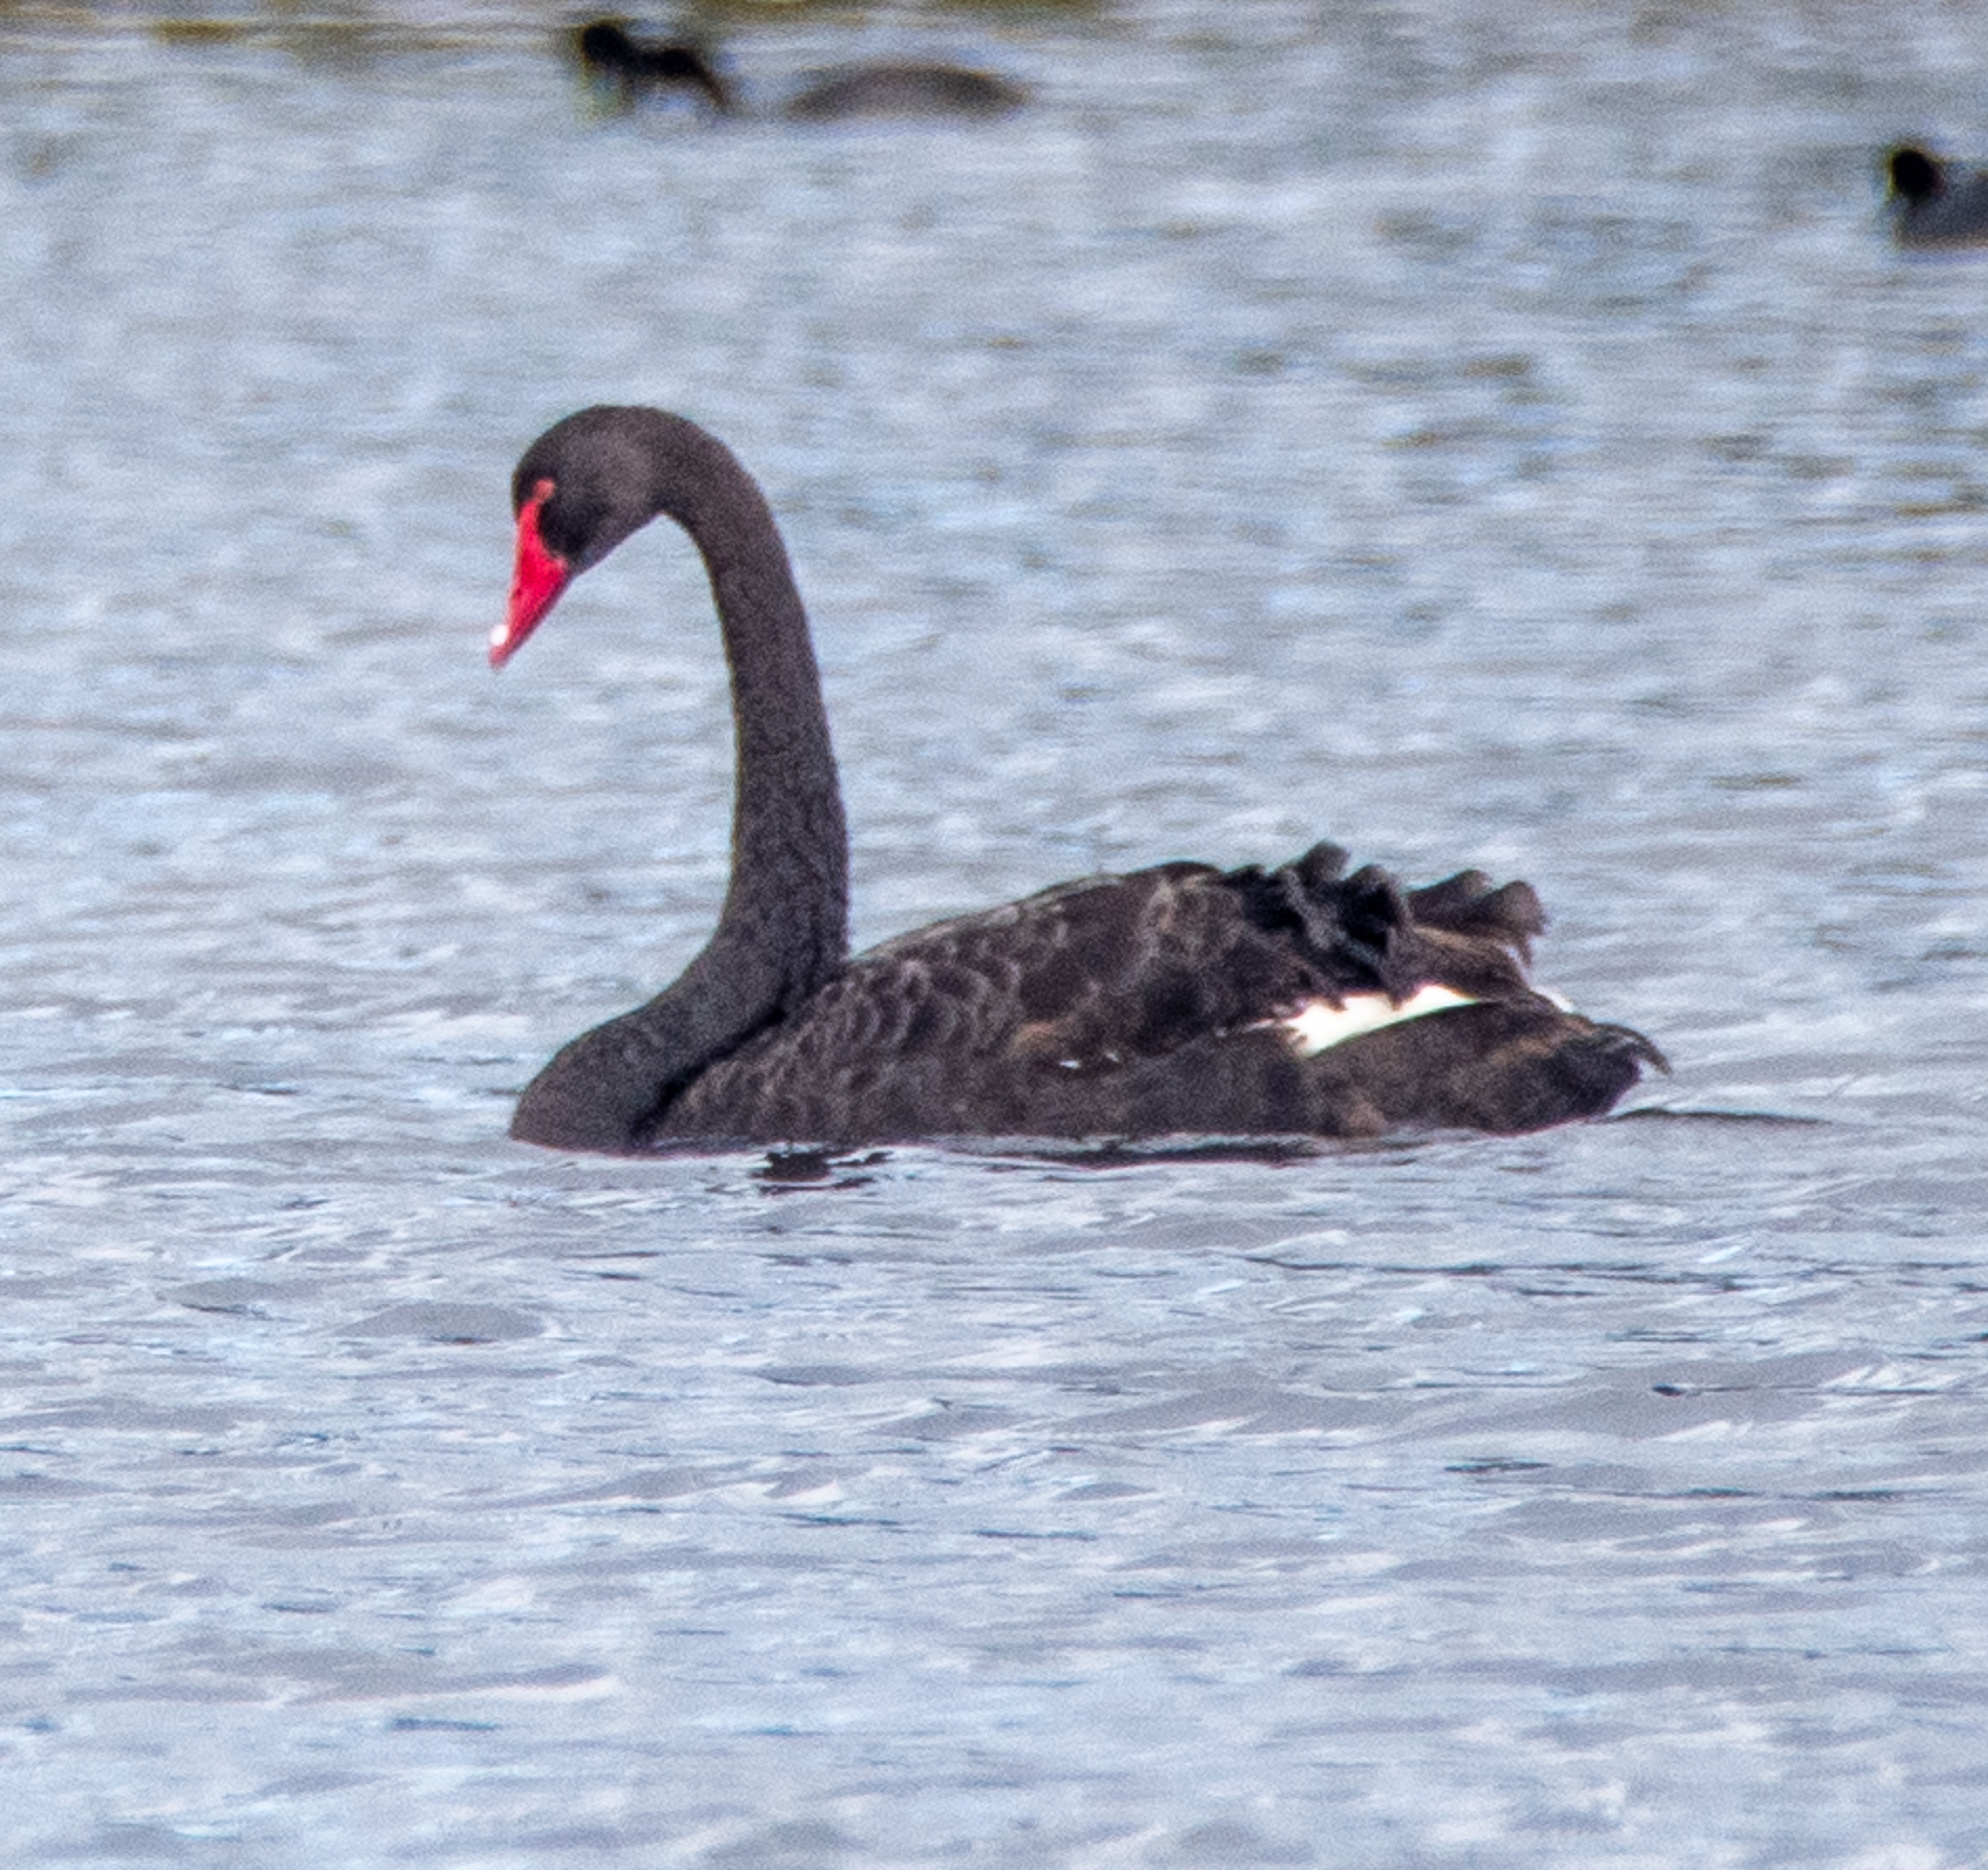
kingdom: Animalia
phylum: Chordata
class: Aves
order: Anseriformes
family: Anatidae
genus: Cygnus
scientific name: Cygnus atratus
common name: Black swan
